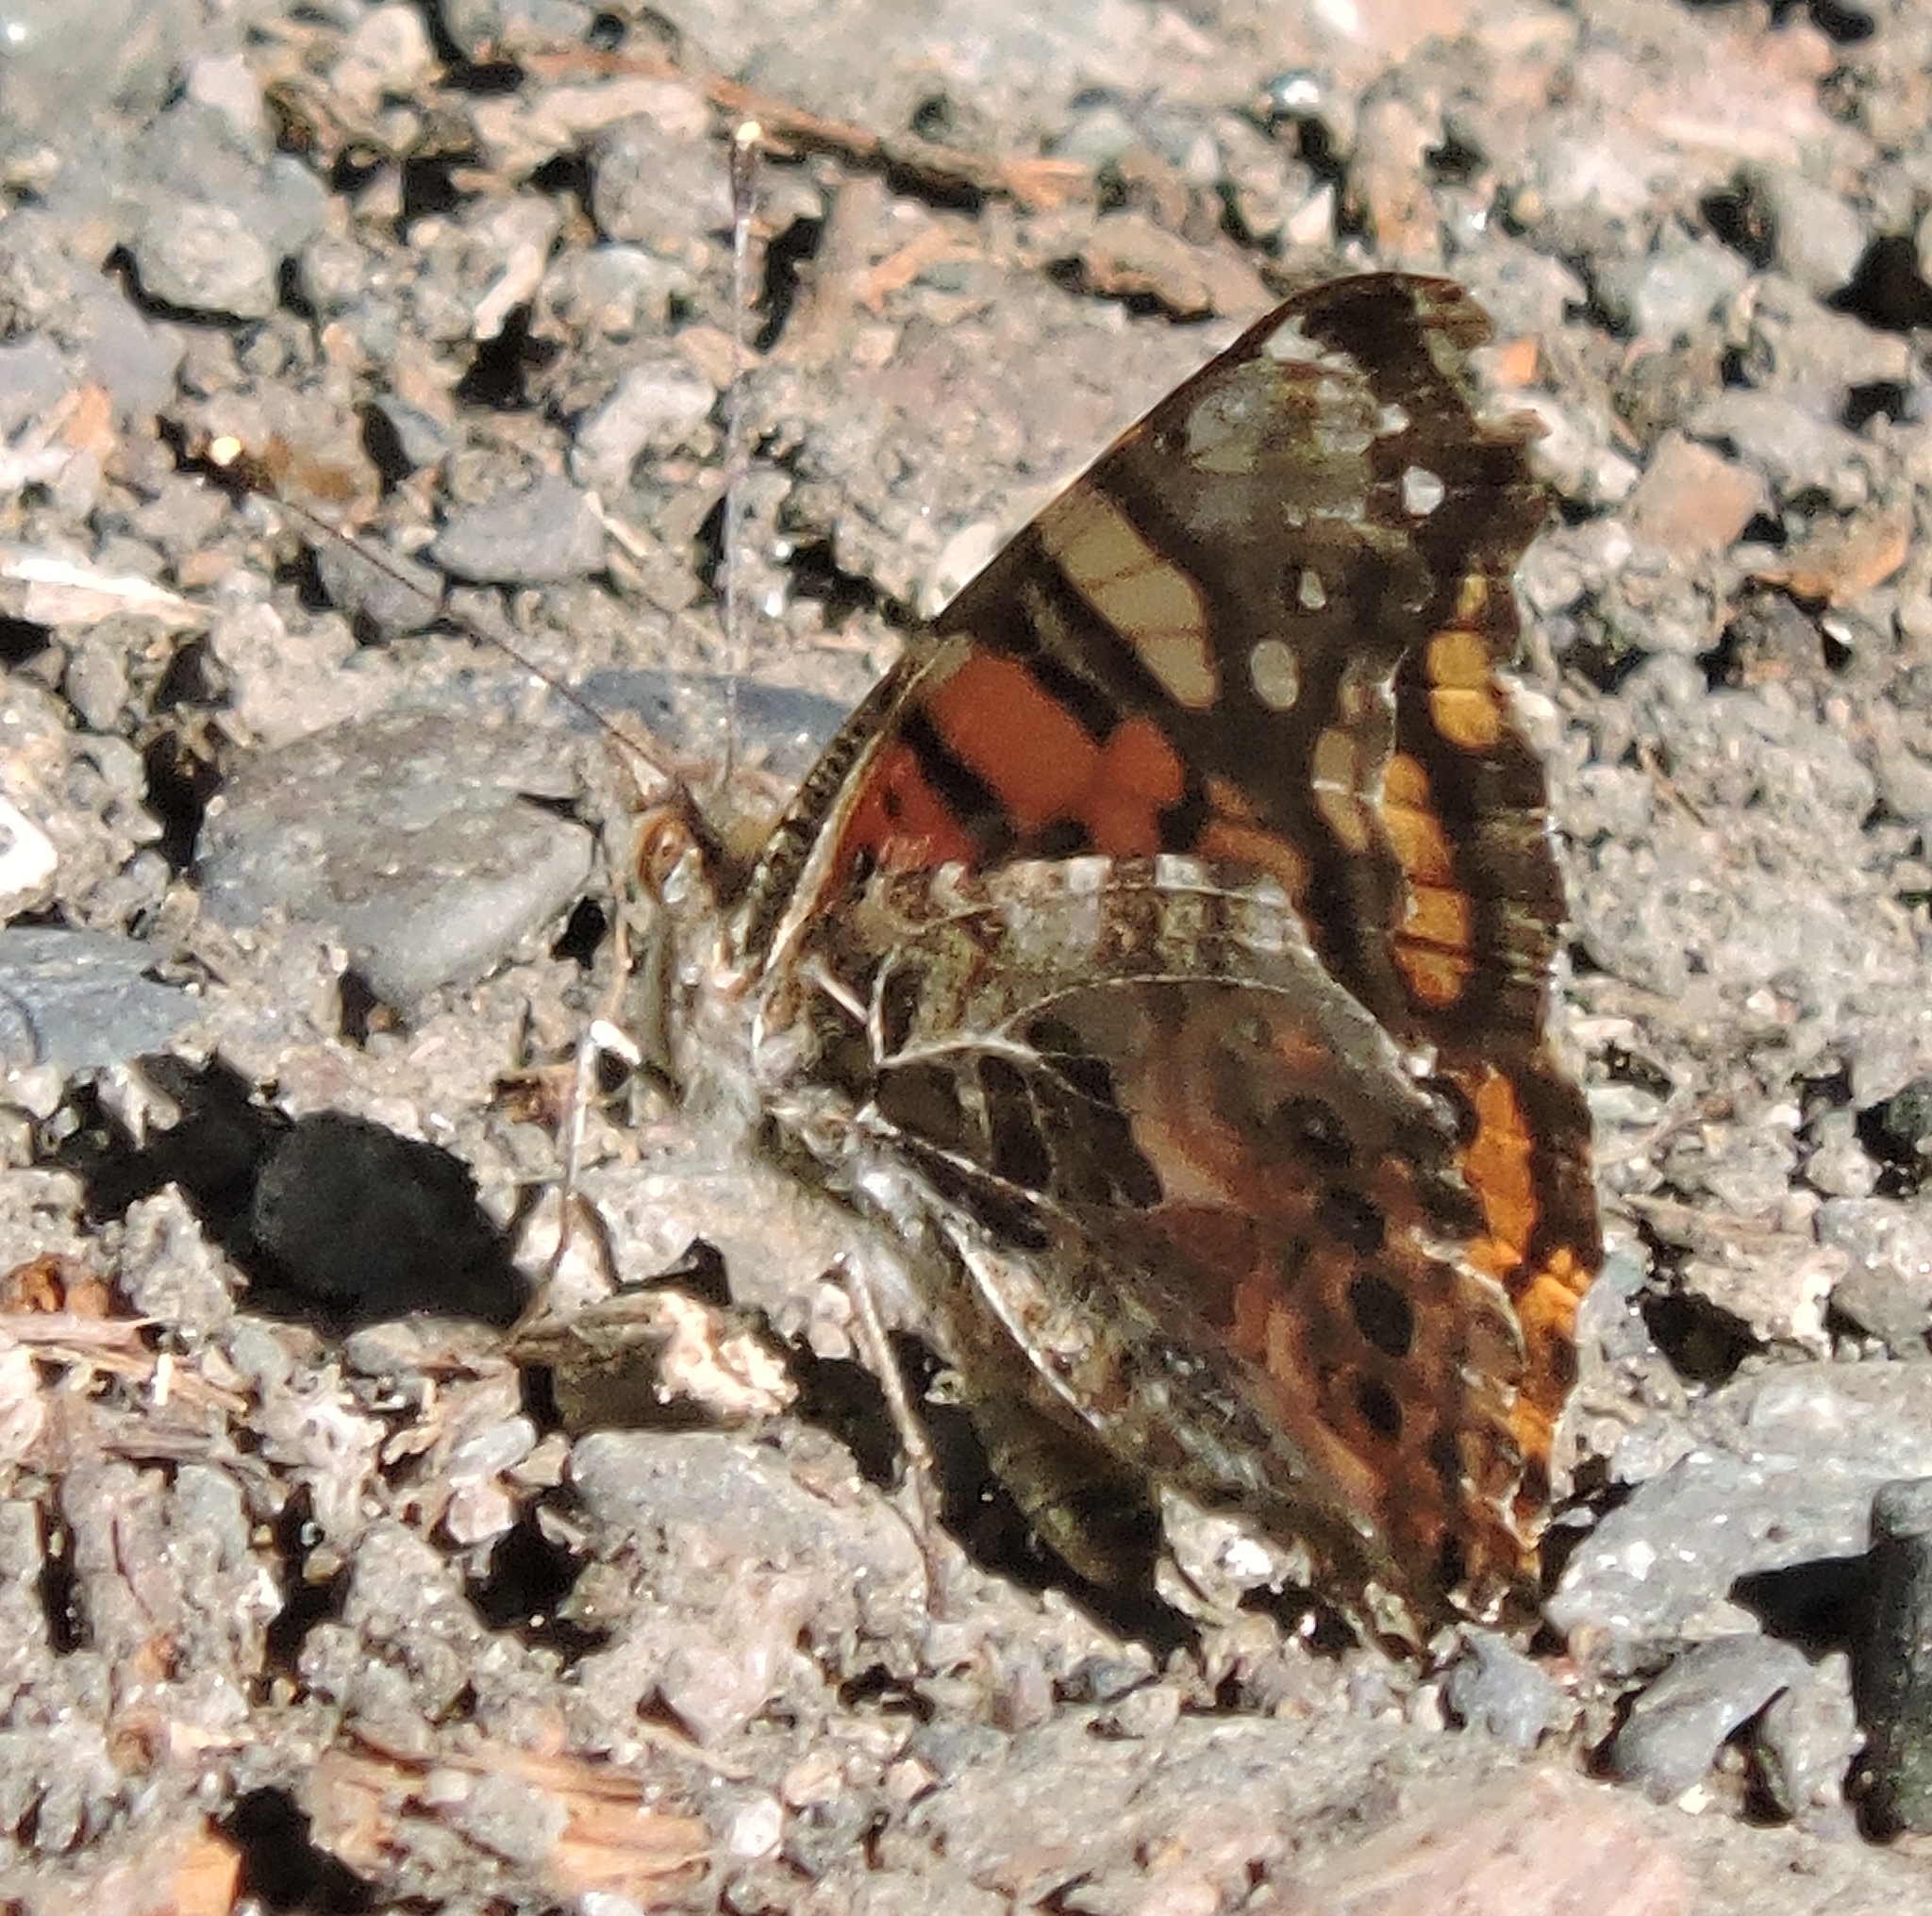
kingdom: Animalia
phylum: Arthropoda
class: Insecta
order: Lepidoptera
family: Nymphalidae
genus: Vanessa
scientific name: Vanessa annabella
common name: West coast lady
